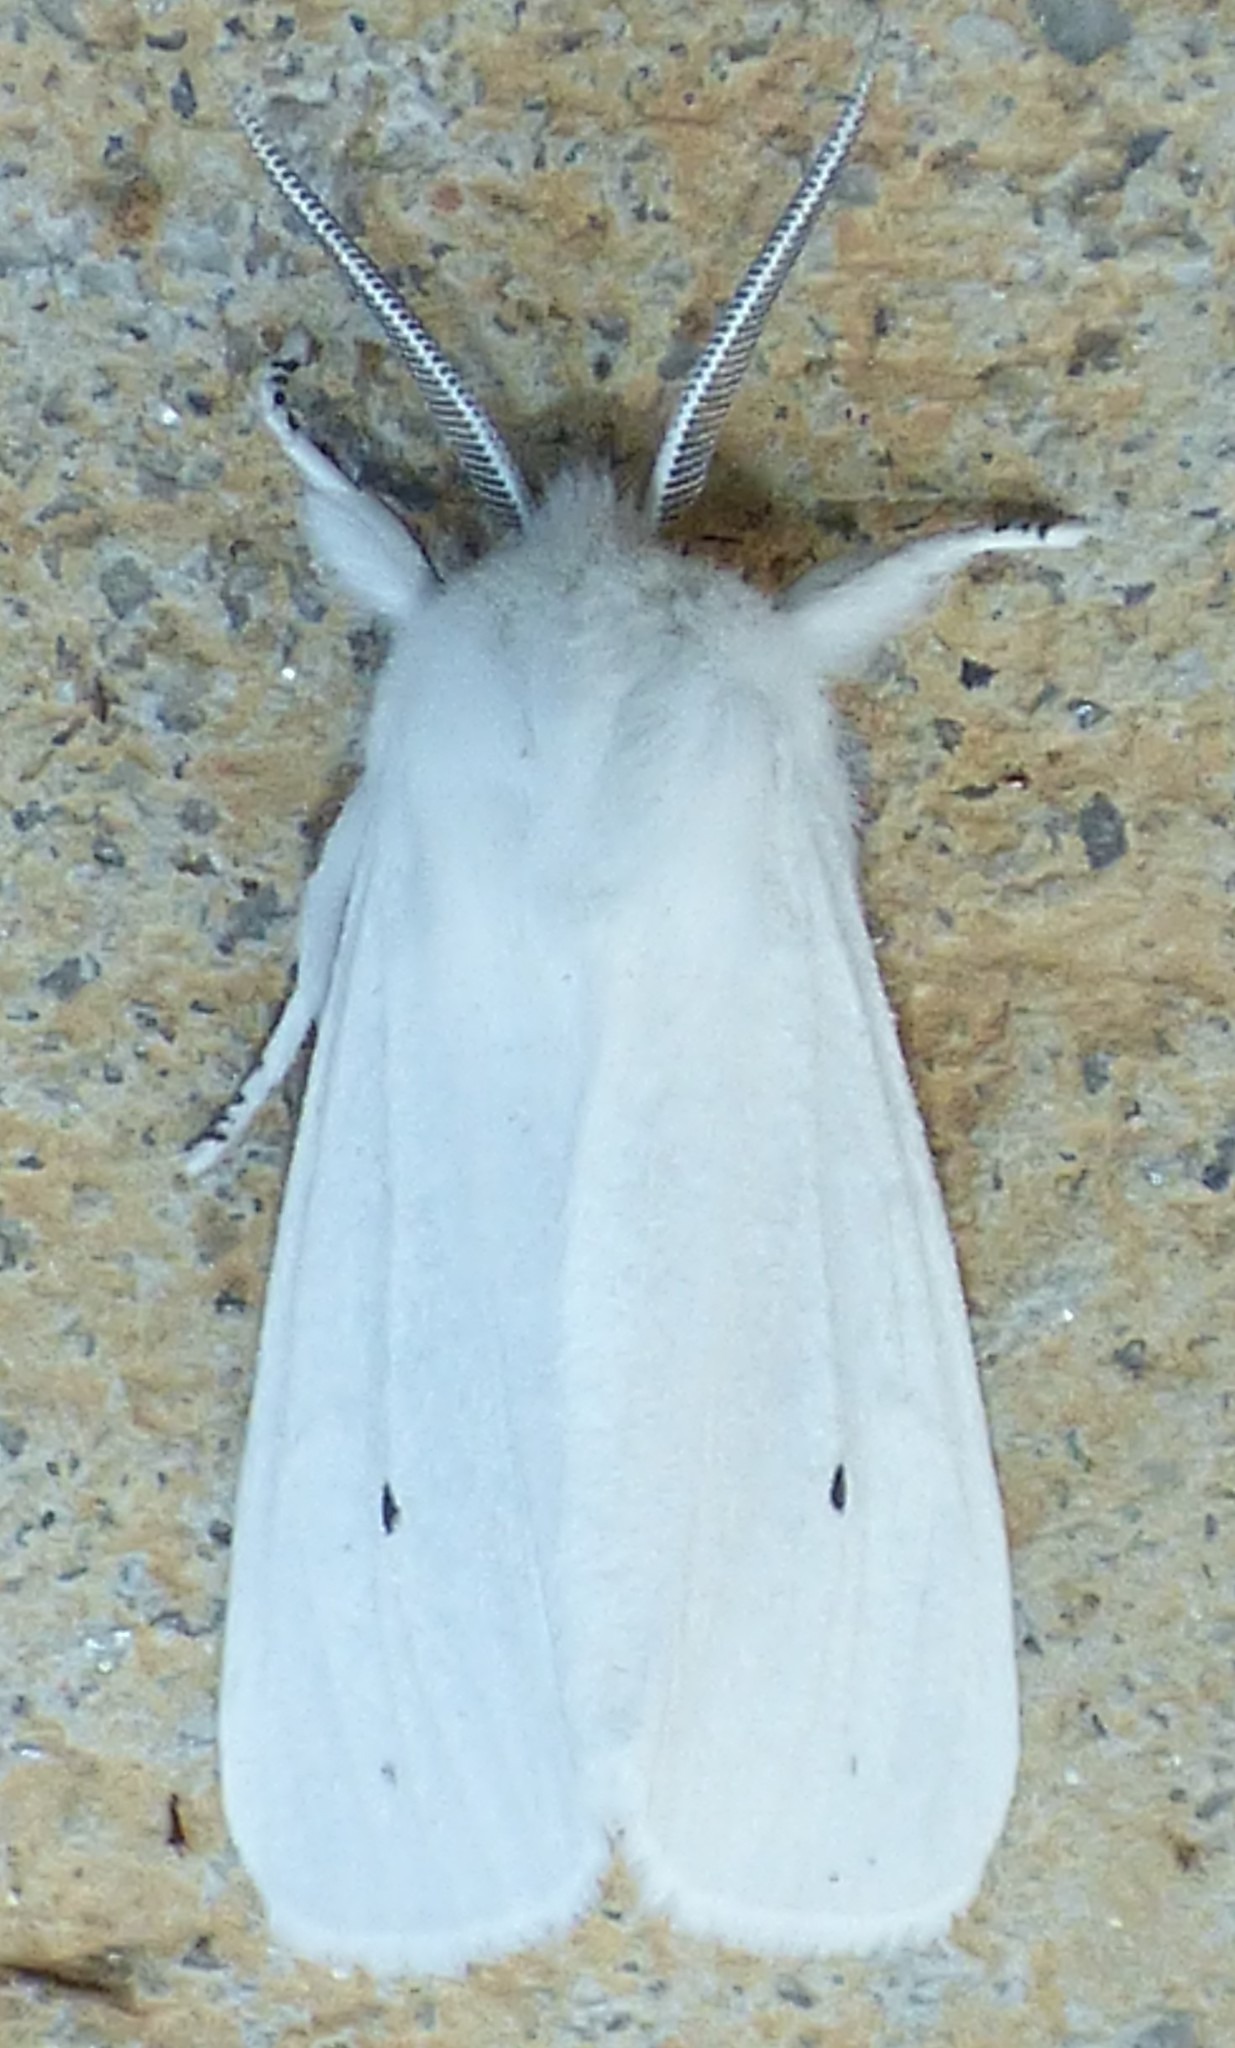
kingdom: Animalia
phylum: Arthropoda
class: Insecta
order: Lepidoptera
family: Erebidae
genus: Spilosoma
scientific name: Spilosoma virginica
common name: Virginia tiger moth
